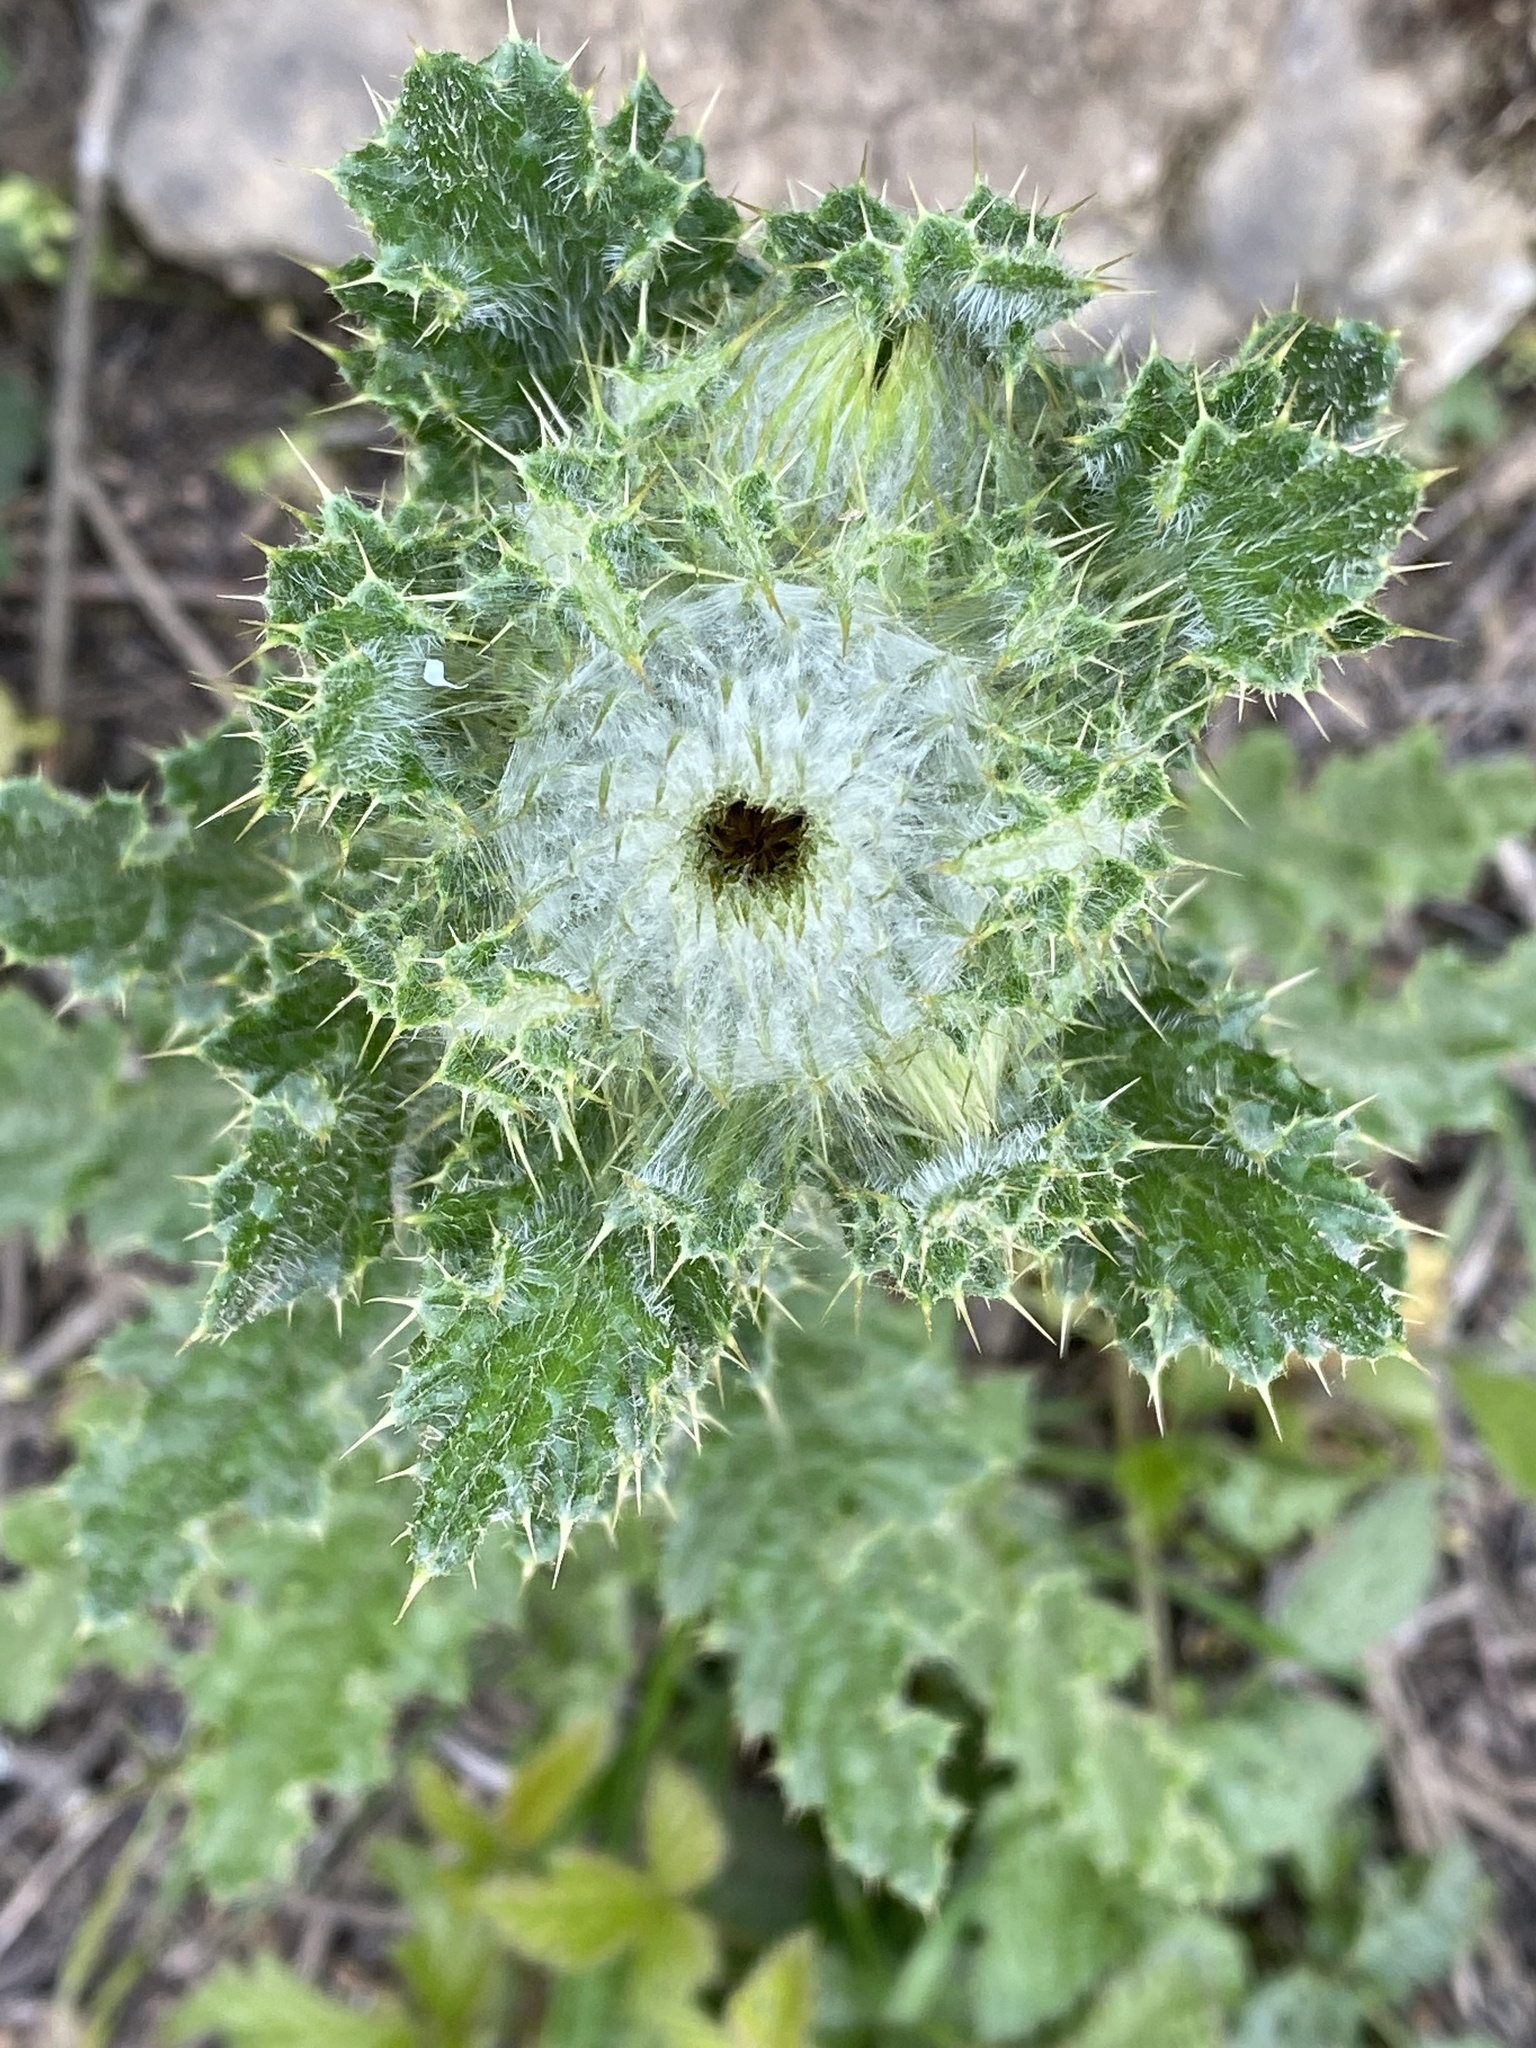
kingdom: Plantae
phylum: Tracheophyta
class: Magnoliopsida
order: Asterales
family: Asteraceae
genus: Cirsium
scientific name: Cirsium brevistylum
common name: Indian thistle
